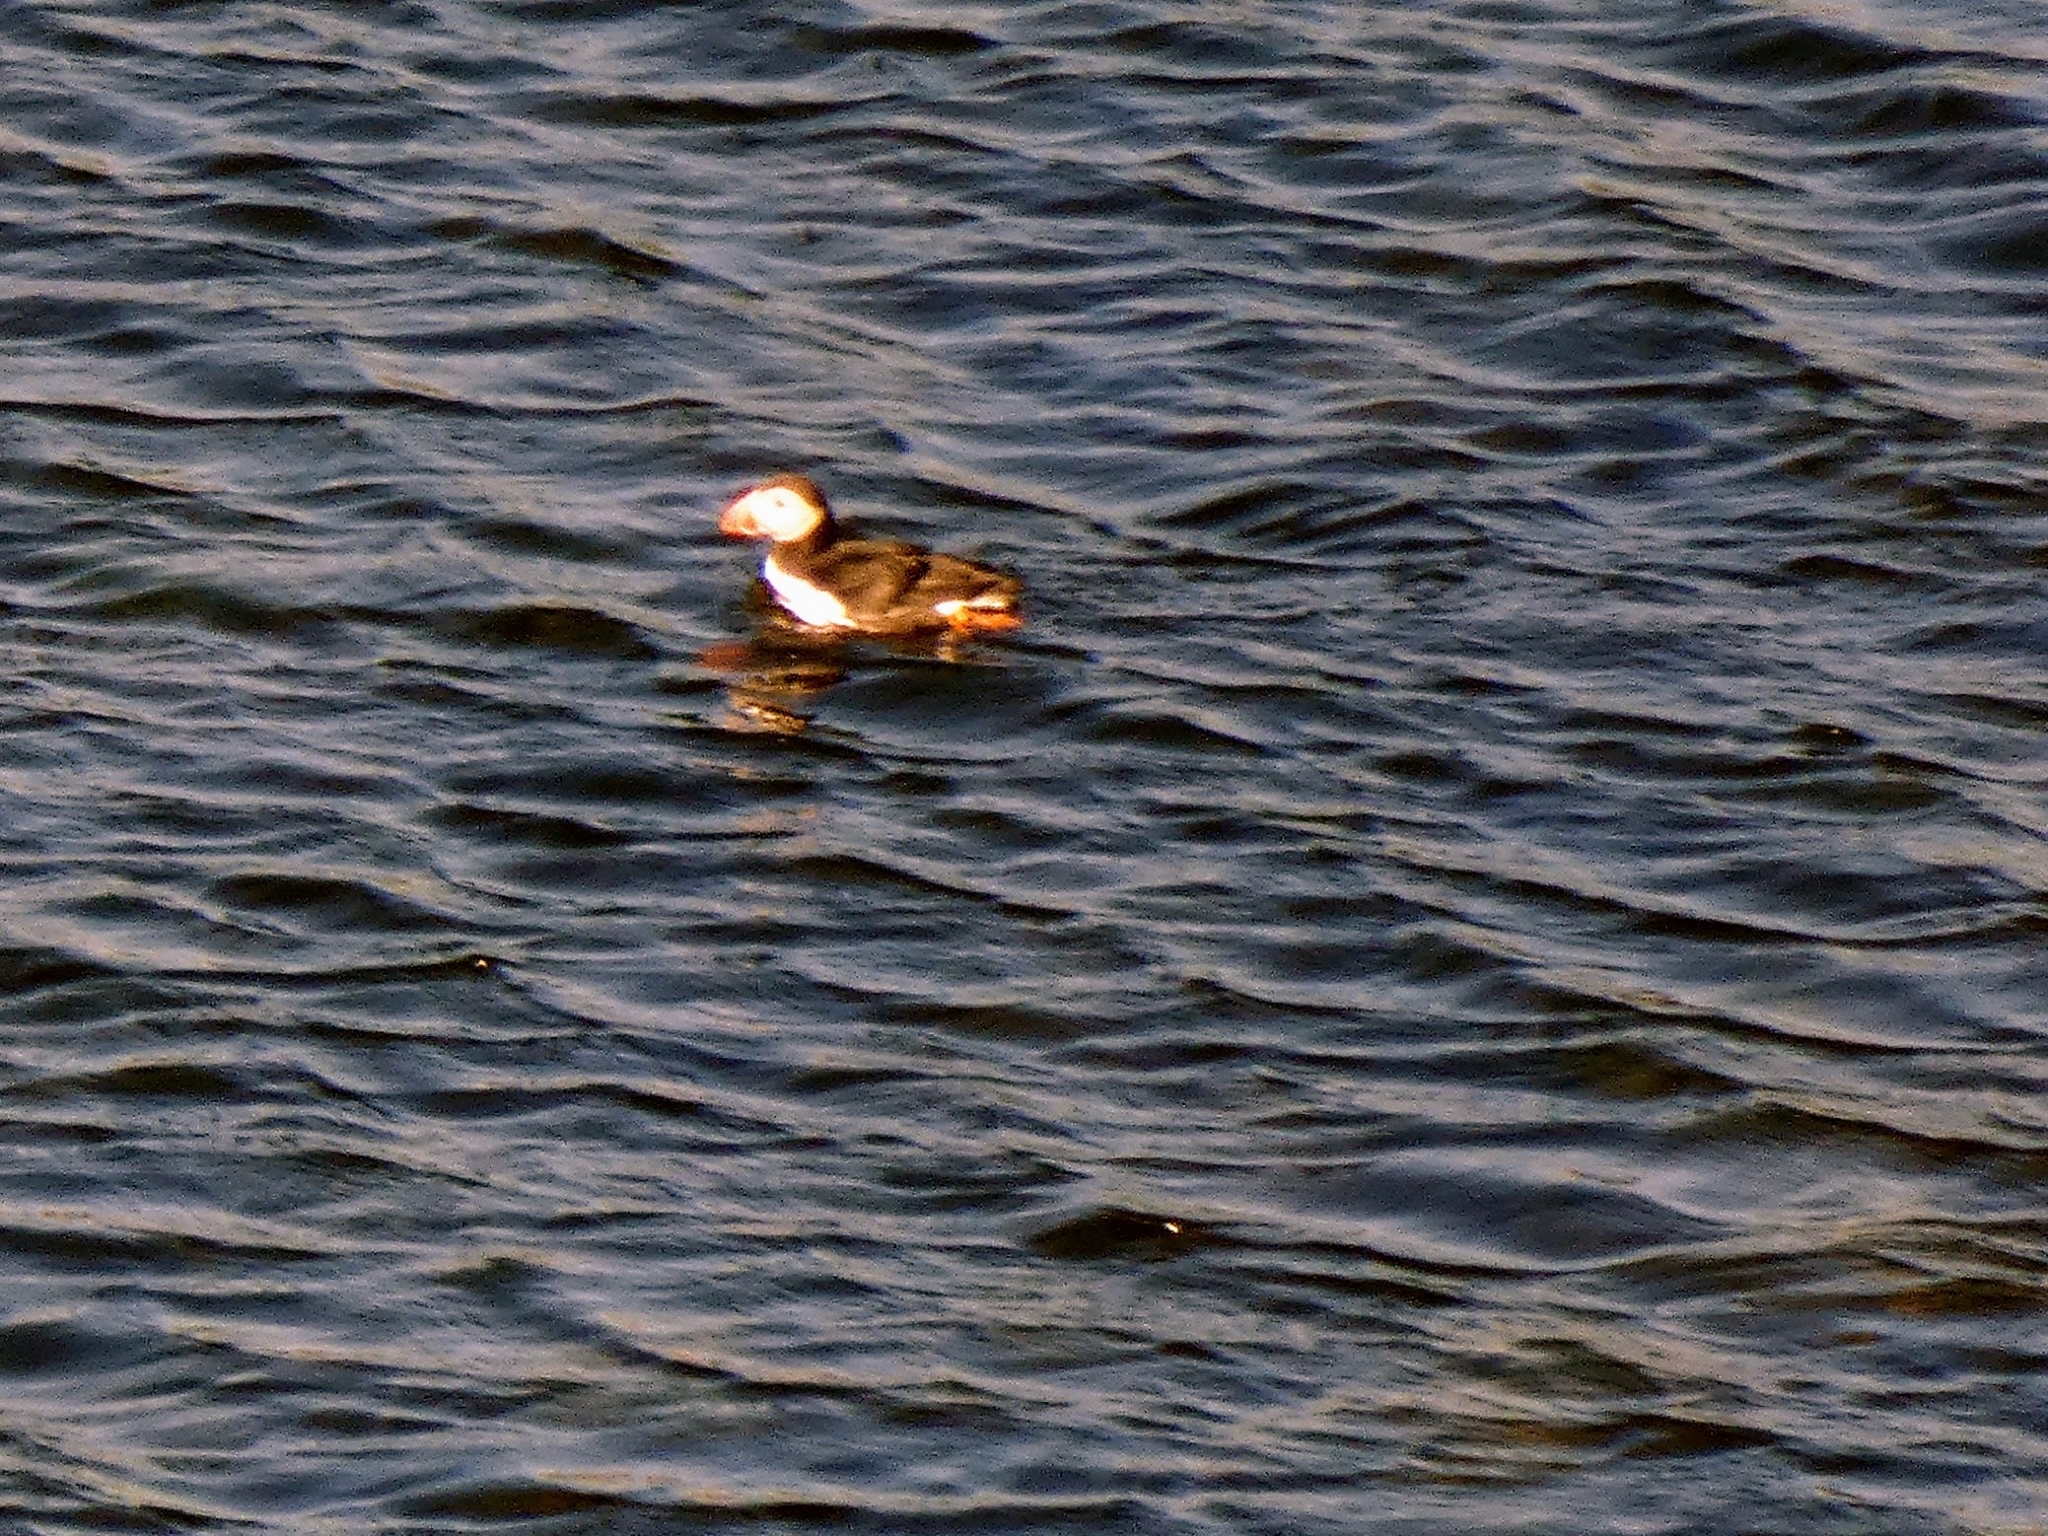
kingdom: Animalia
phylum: Chordata
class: Aves
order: Charadriiformes
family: Alcidae
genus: Fratercula
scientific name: Fratercula arctica
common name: Atlantic puffin
